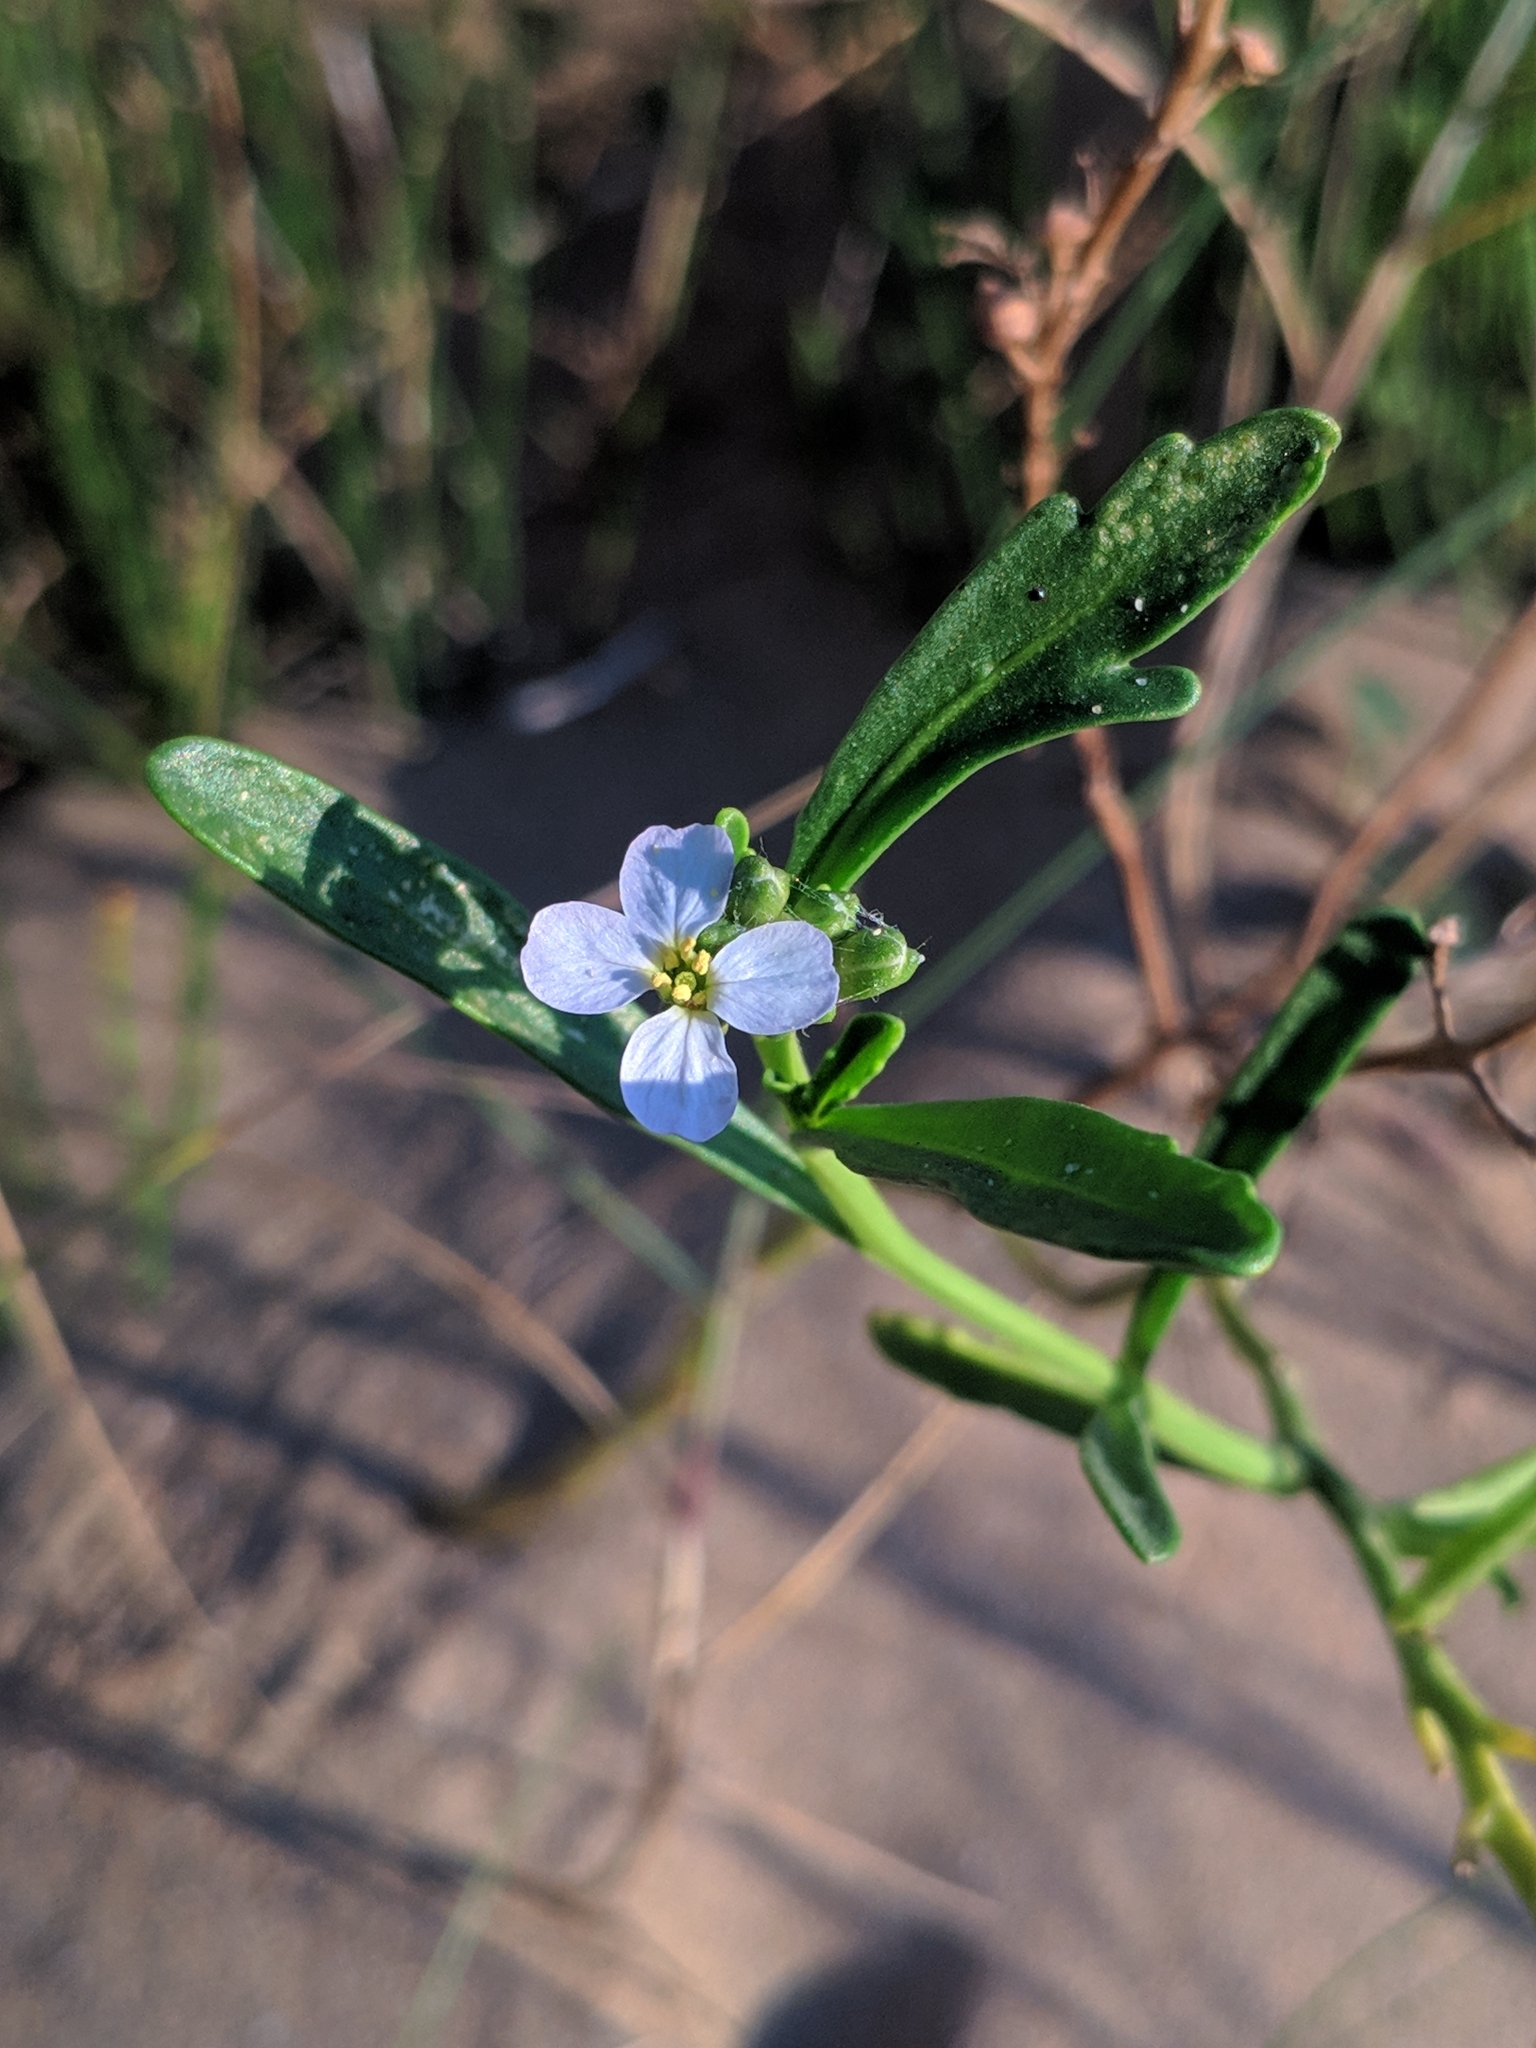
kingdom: Plantae
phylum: Tracheophyta
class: Magnoliopsida
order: Brassicales
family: Brassicaceae
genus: Cakile
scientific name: Cakile maritima
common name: Sea rocket
